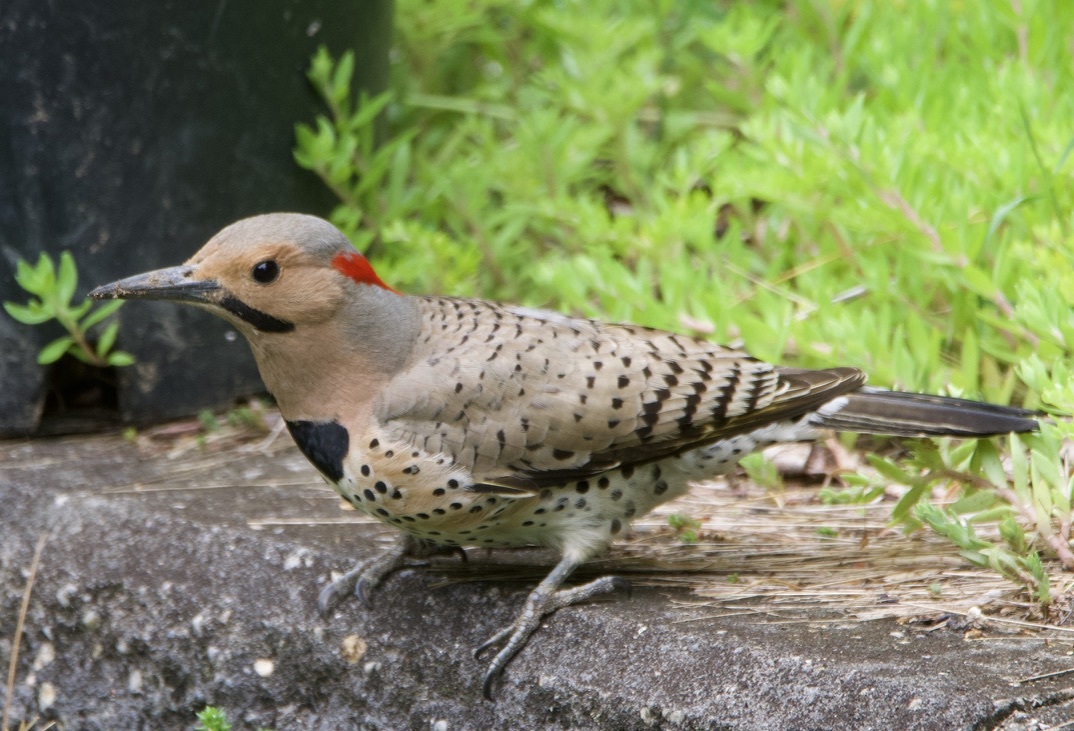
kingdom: Animalia
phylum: Chordata
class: Aves
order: Piciformes
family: Picidae
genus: Colaptes
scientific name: Colaptes auratus
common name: Northern flicker
